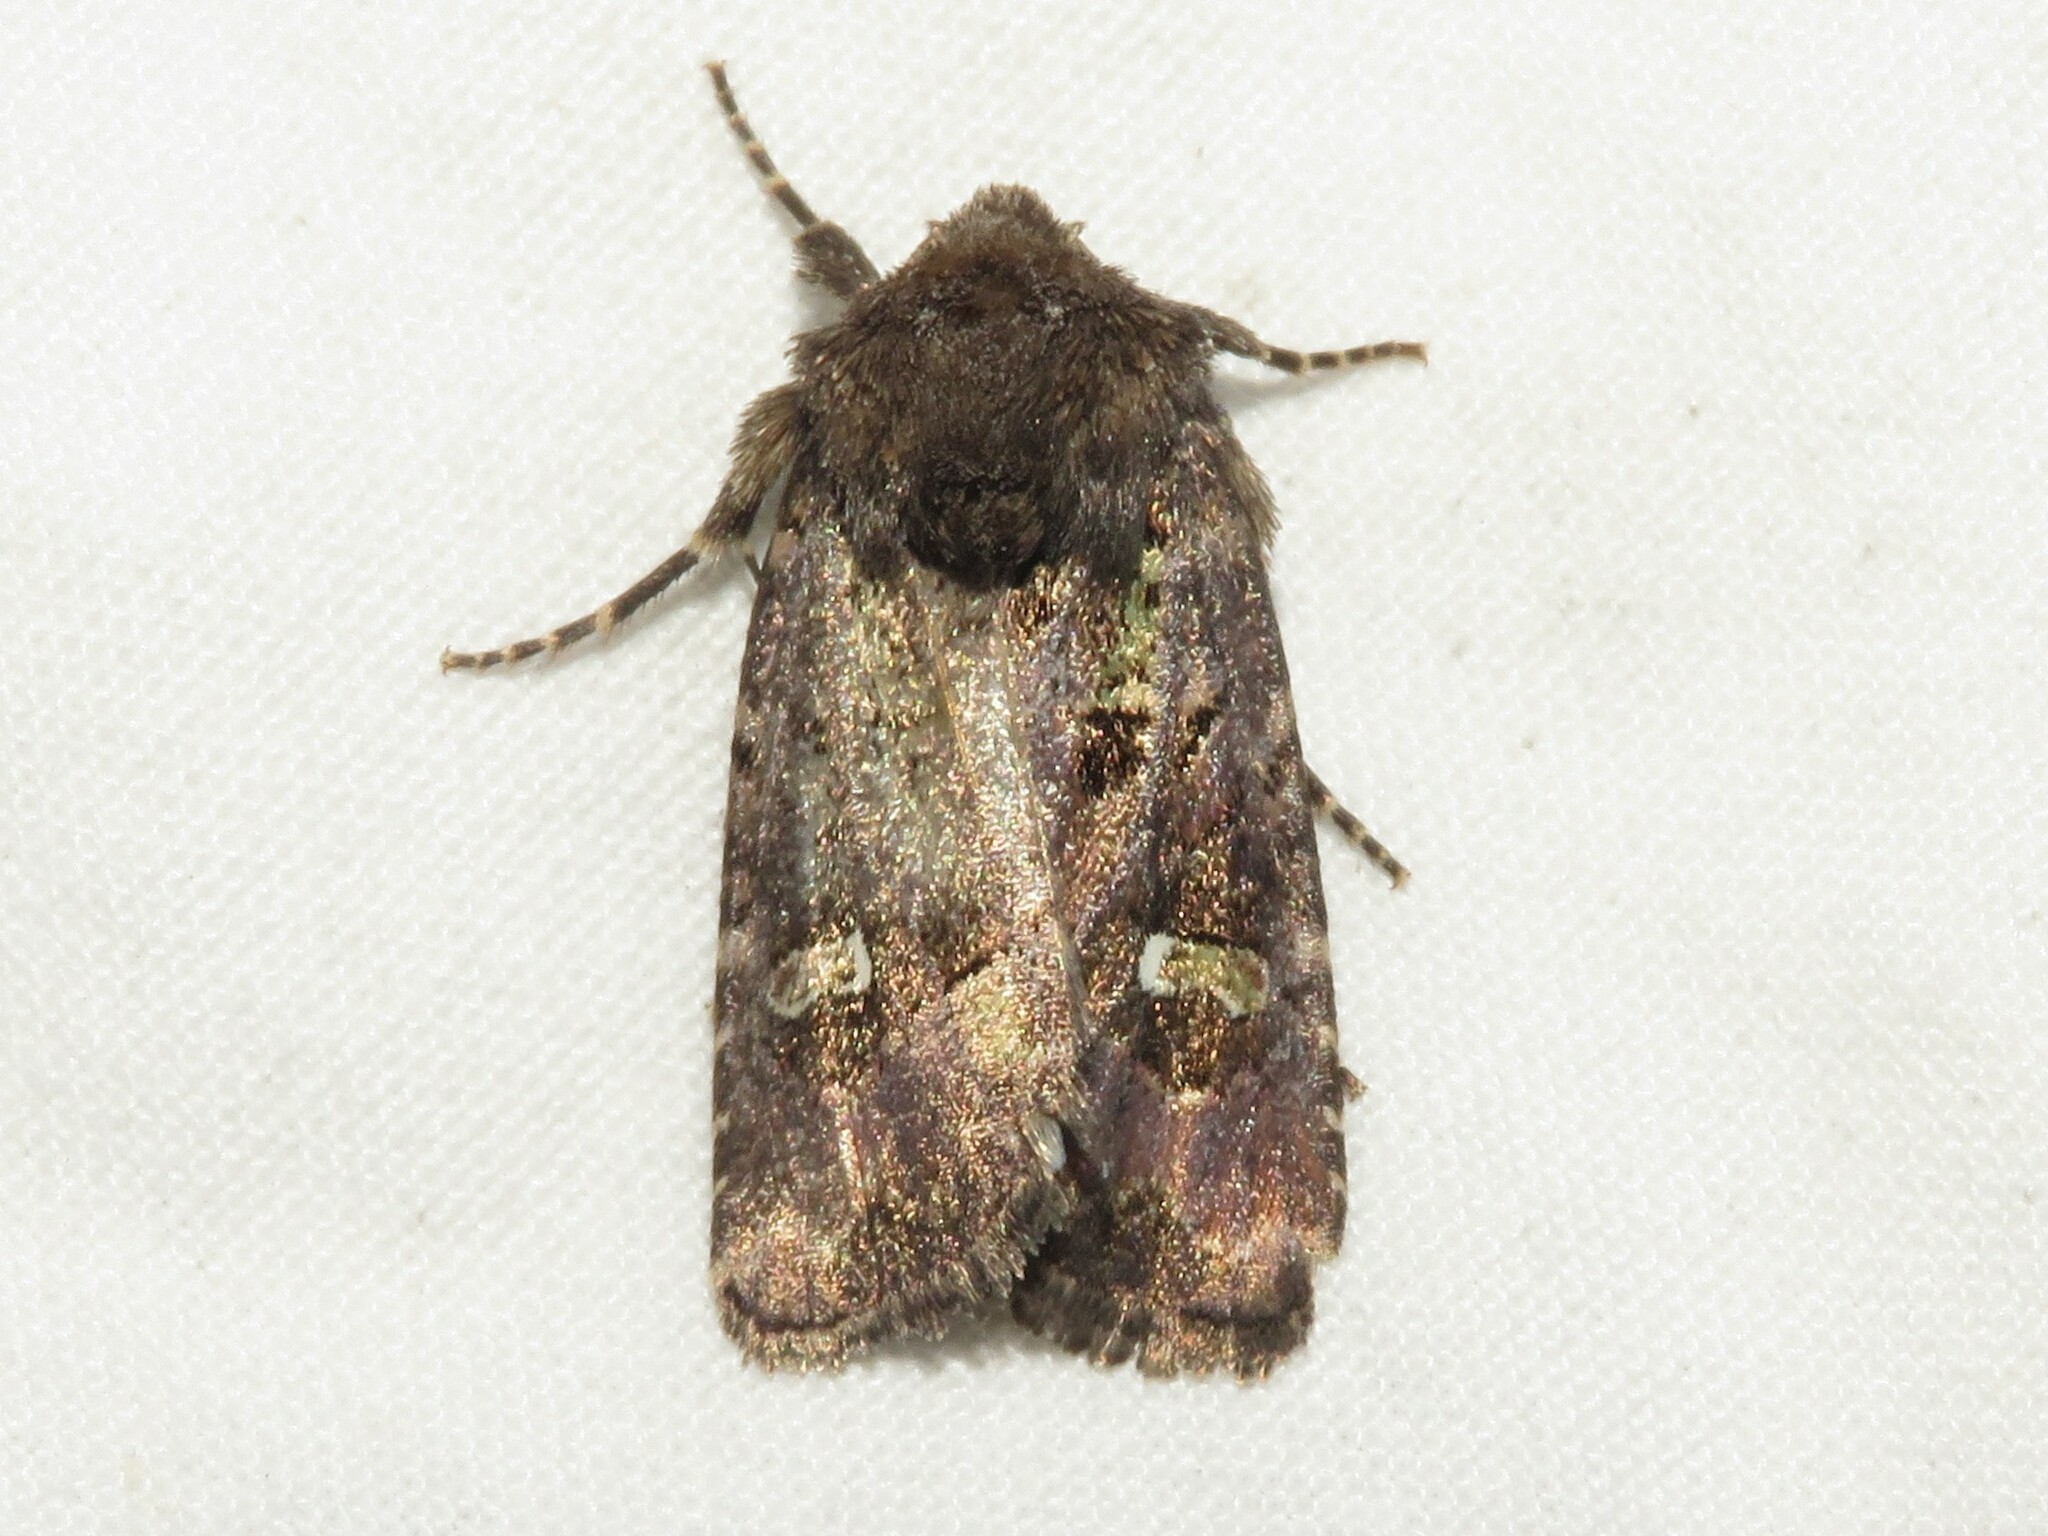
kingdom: Animalia
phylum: Arthropoda
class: Insecta
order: Lepidoptera
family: Noctuidae
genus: Lacinipolia
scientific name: Lacinipolia renigera
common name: Kidney-spotted minor
